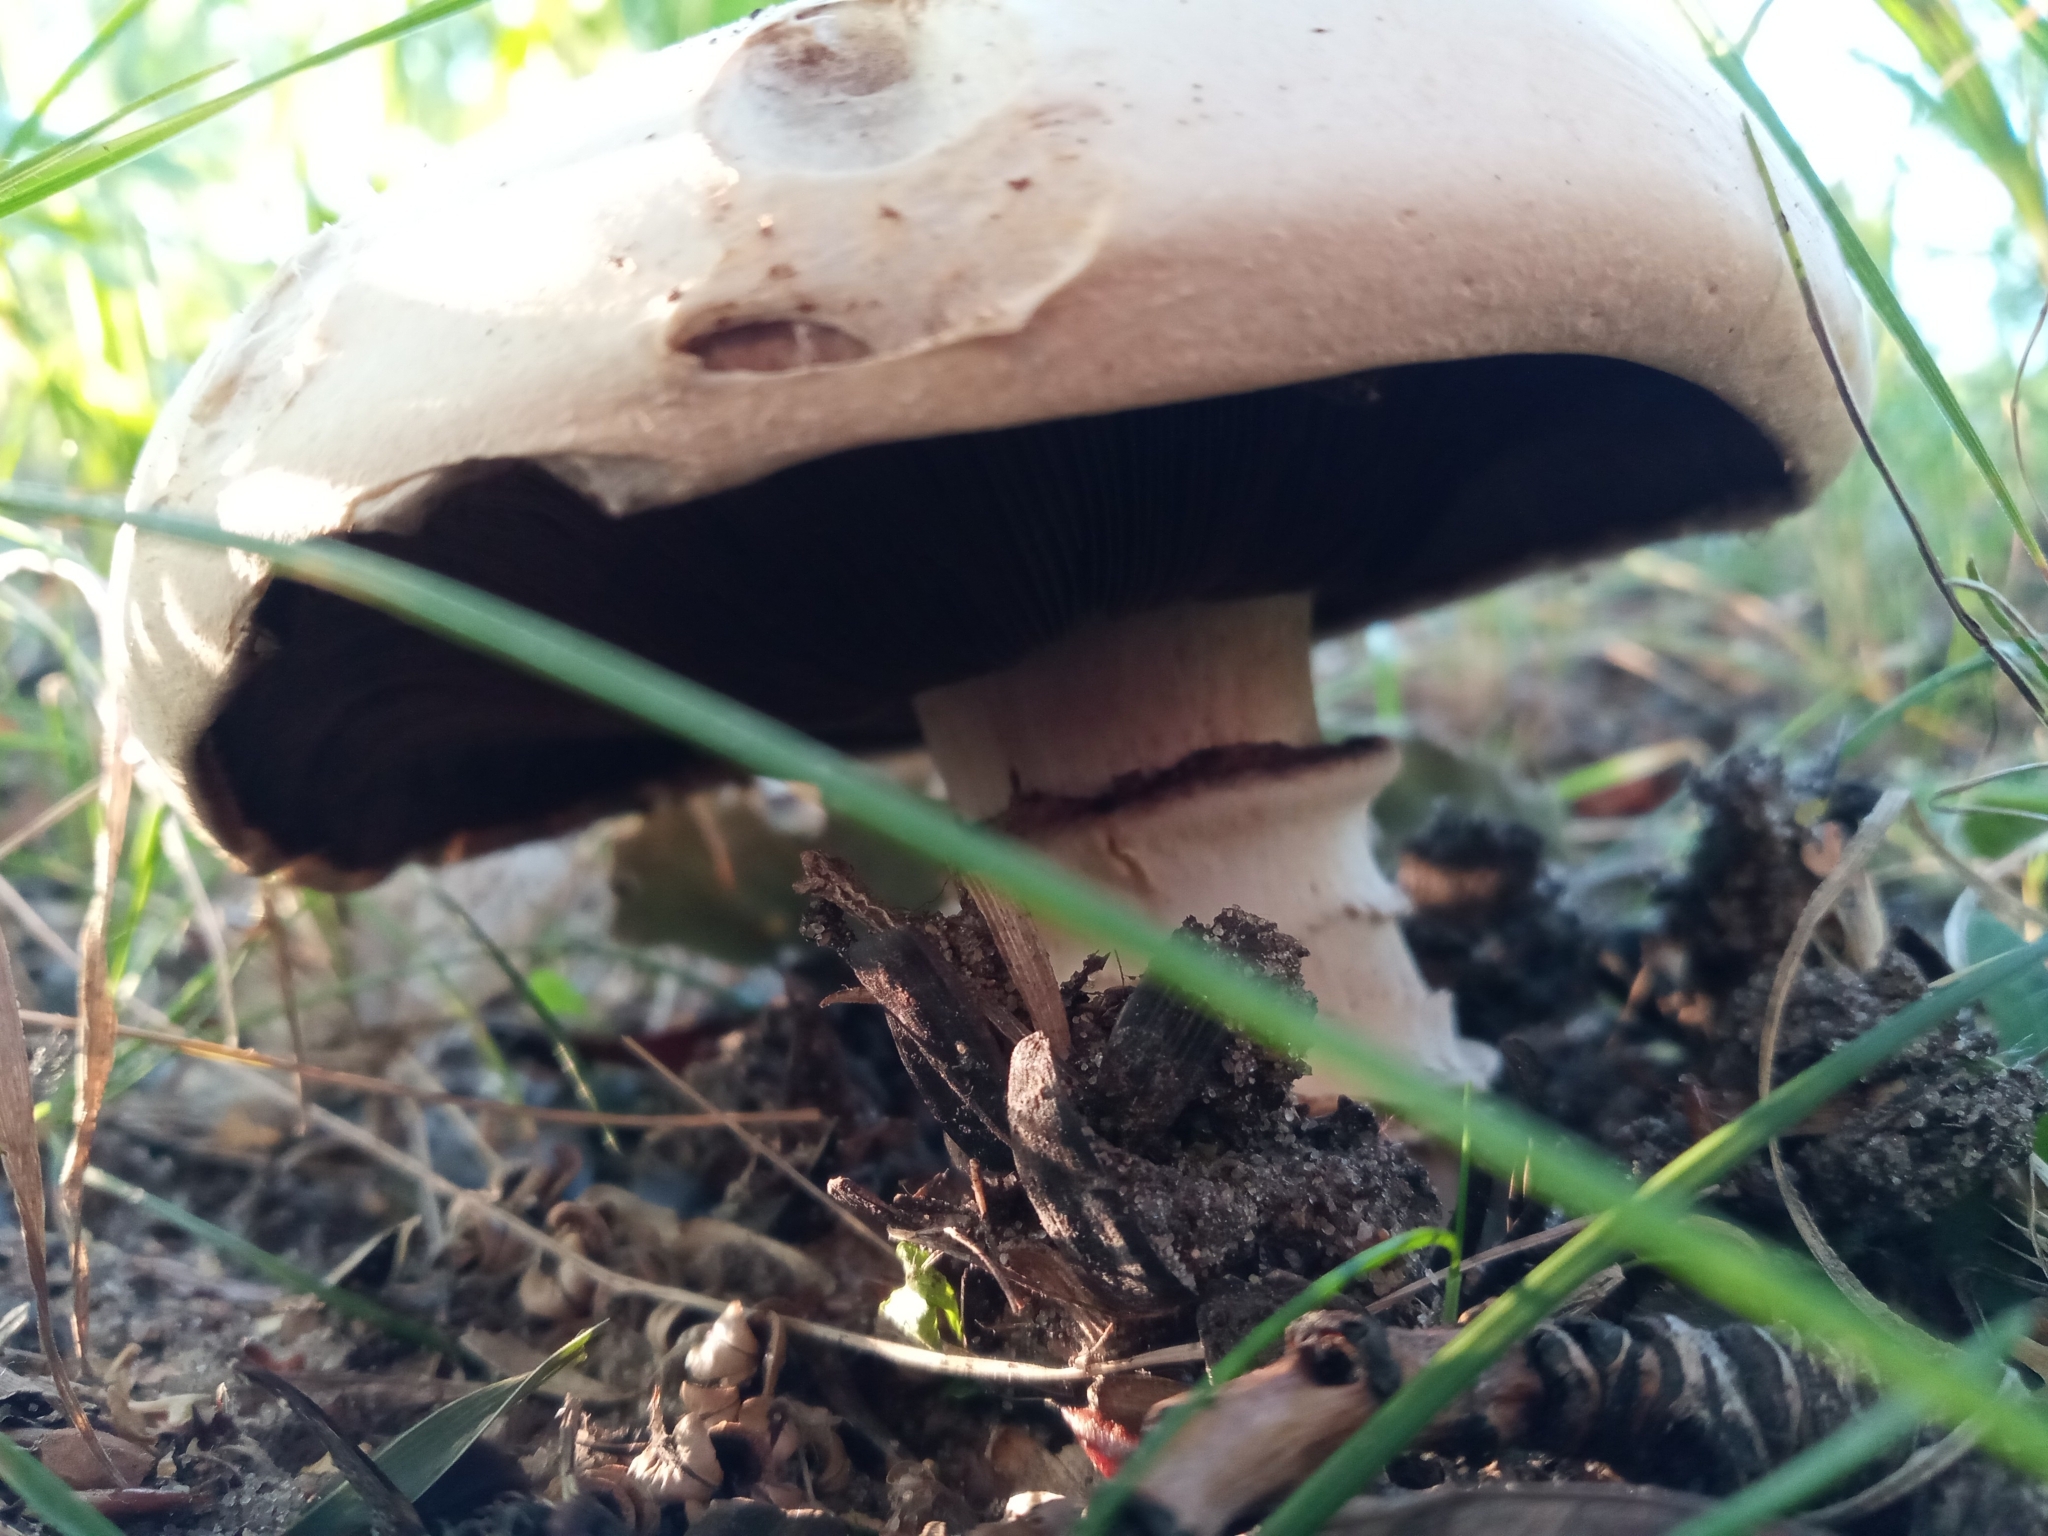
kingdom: Fungi
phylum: Basidiomycota
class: Agaricomycetes
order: Agaricales
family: Agaricaceae
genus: Agaricus
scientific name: Agaricus bitorquis
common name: Pavement mushroom
